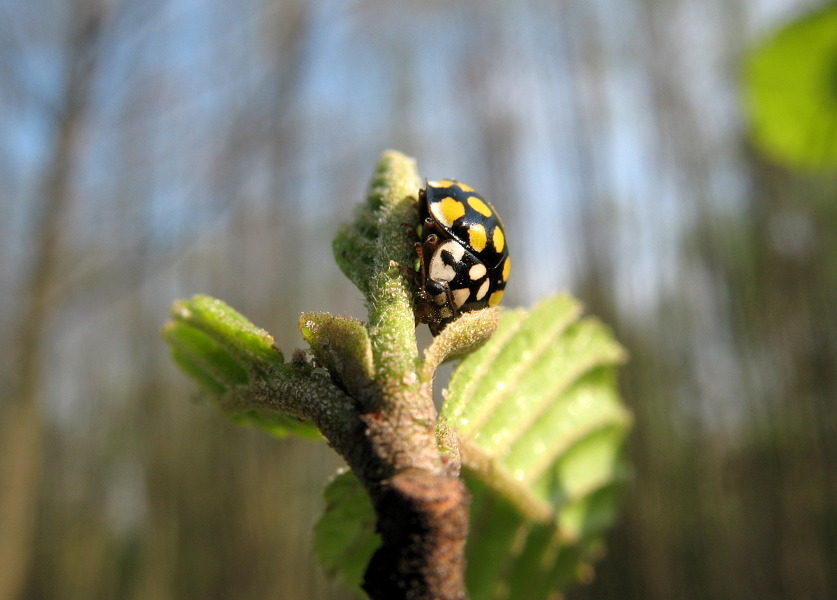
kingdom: Animalia
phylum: Arthropoda
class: Insecta
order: Coleoptera
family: Coccinellidae
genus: Sospita
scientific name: Sospita vigintiguttata
